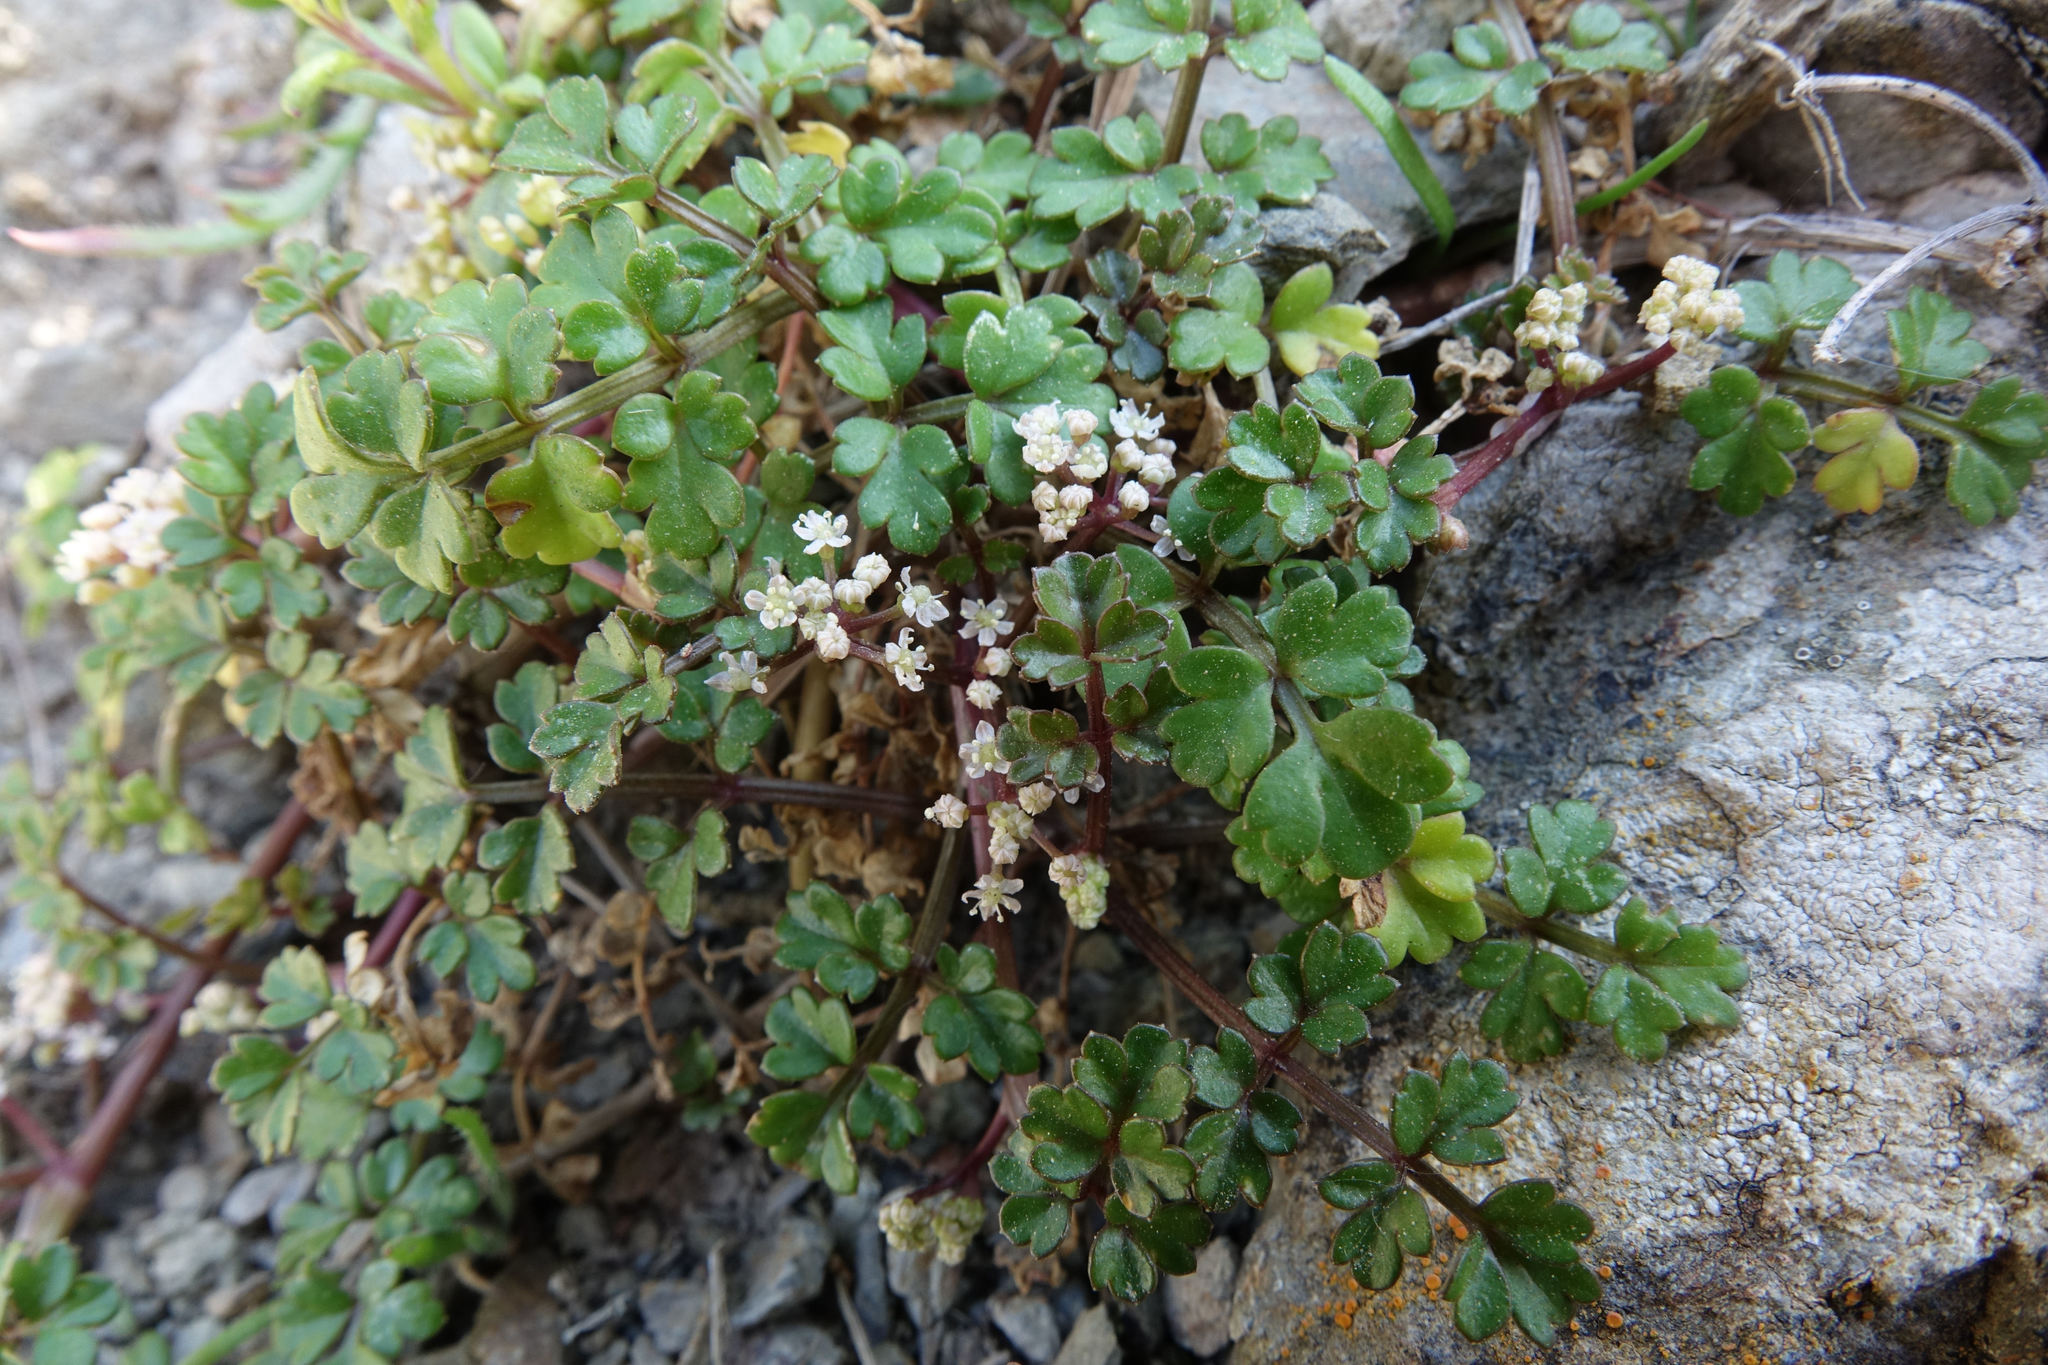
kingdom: Plantae
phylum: Tracheophyta
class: Magnoliopsida
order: Apiales
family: Apiaceae
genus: Apium
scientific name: Apium prostratum
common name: Prostrate marshwort
